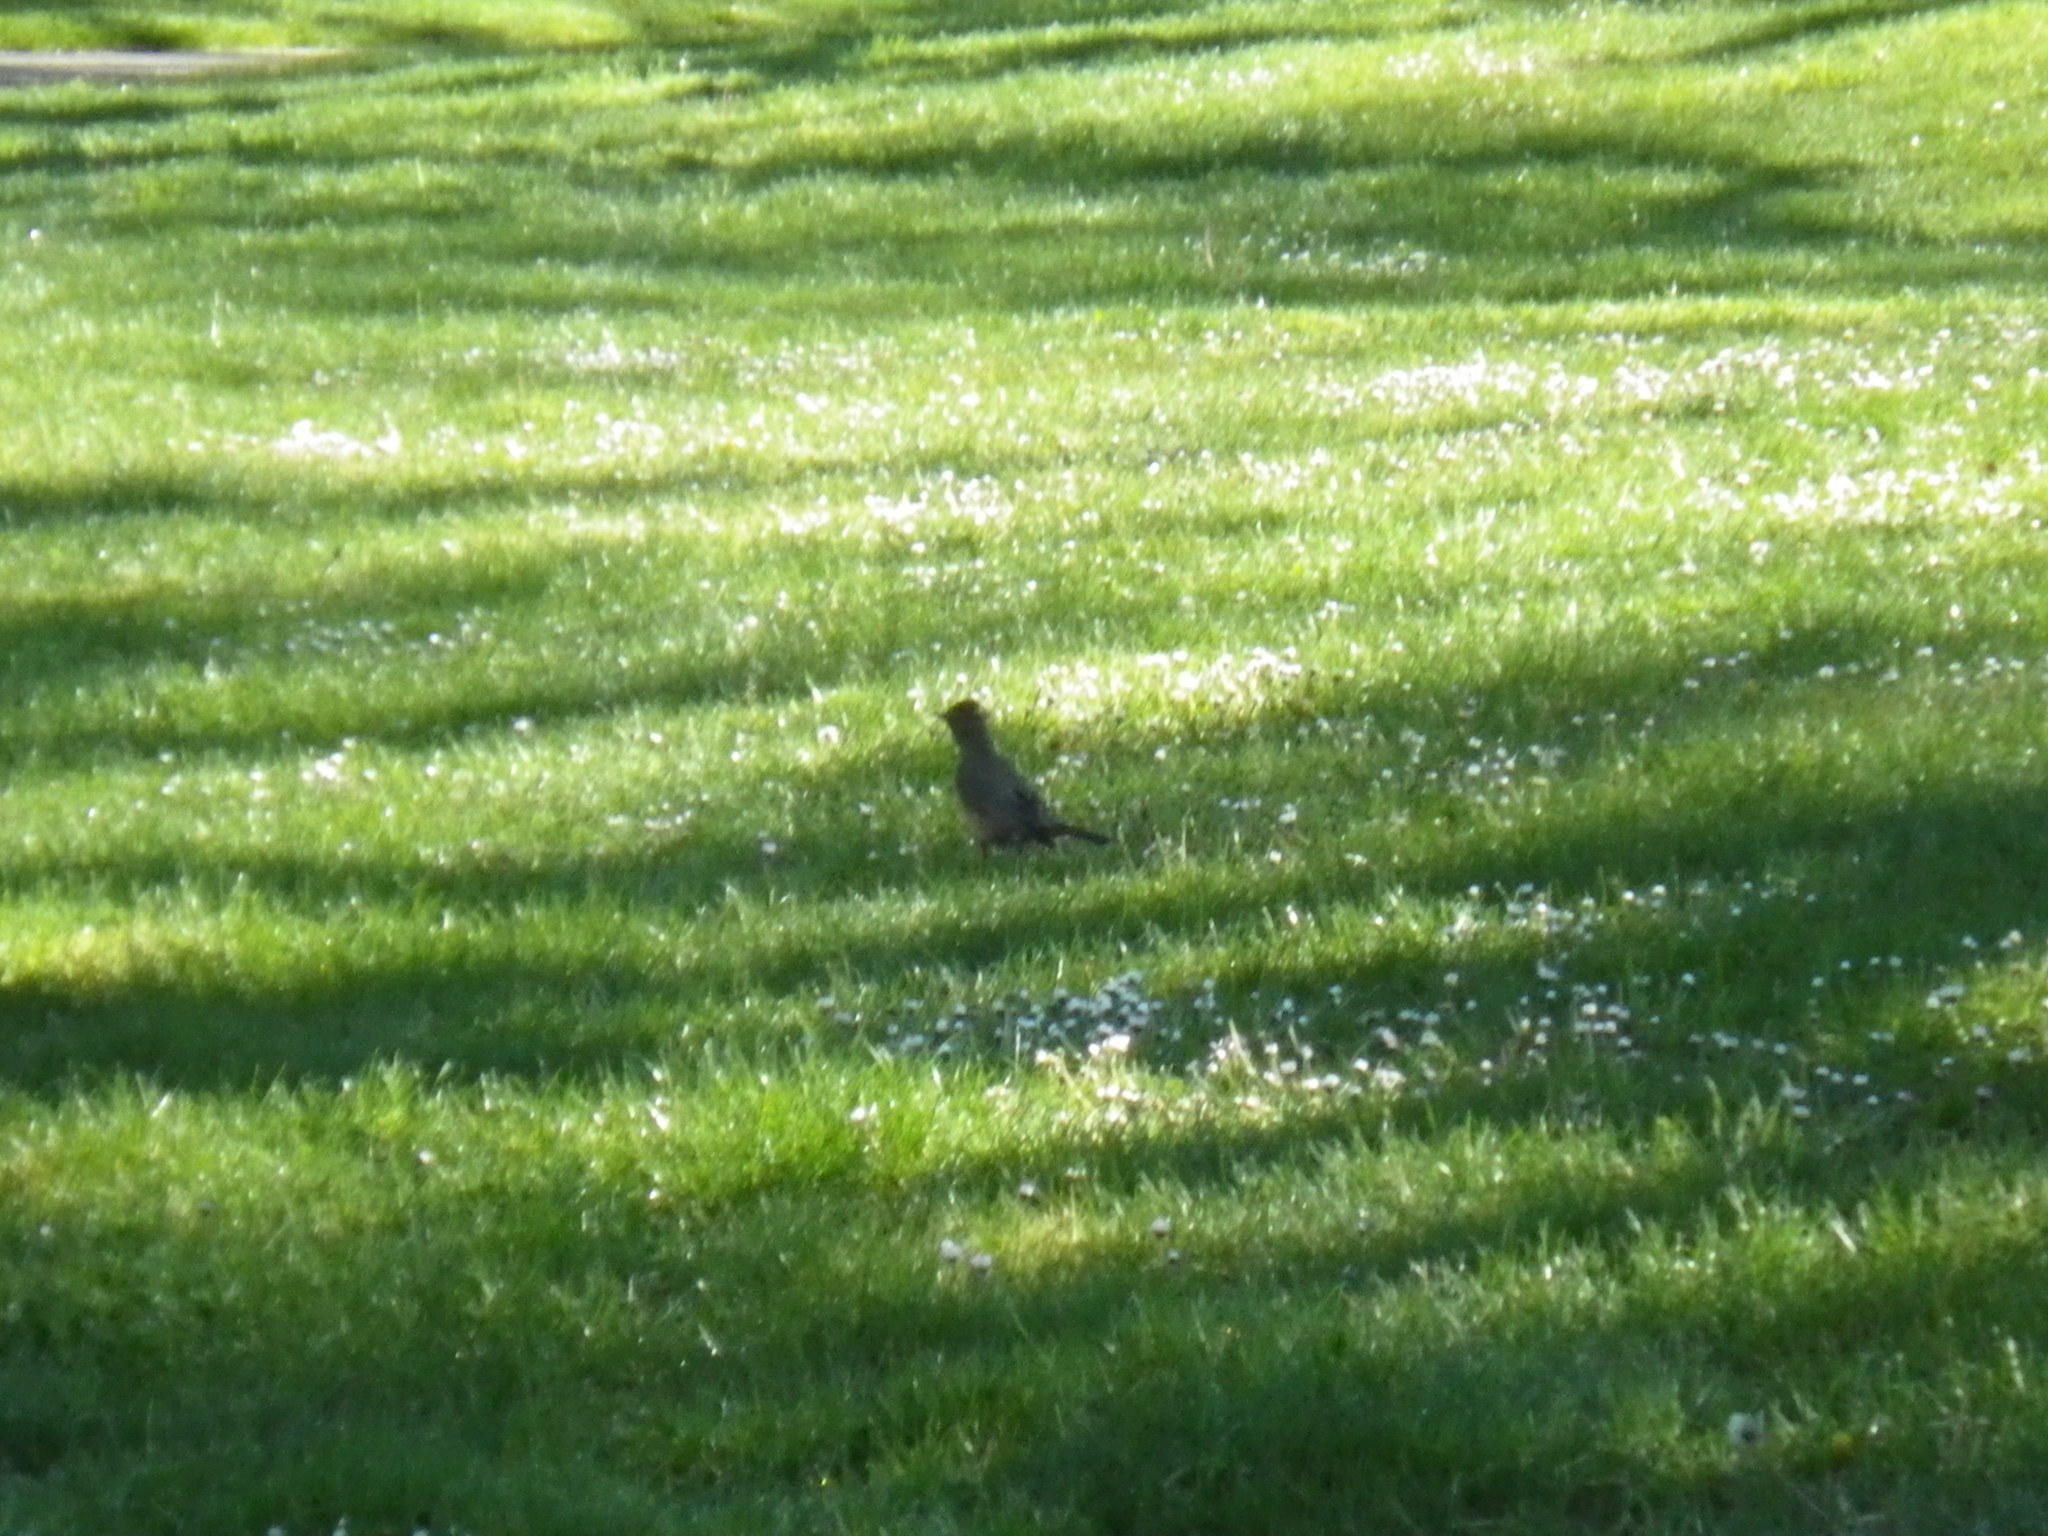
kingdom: Animalia
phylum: Chordata
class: Aves
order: Passeriformes
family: Turdidae
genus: Turdus
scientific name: Turdus migratorius
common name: American robin
